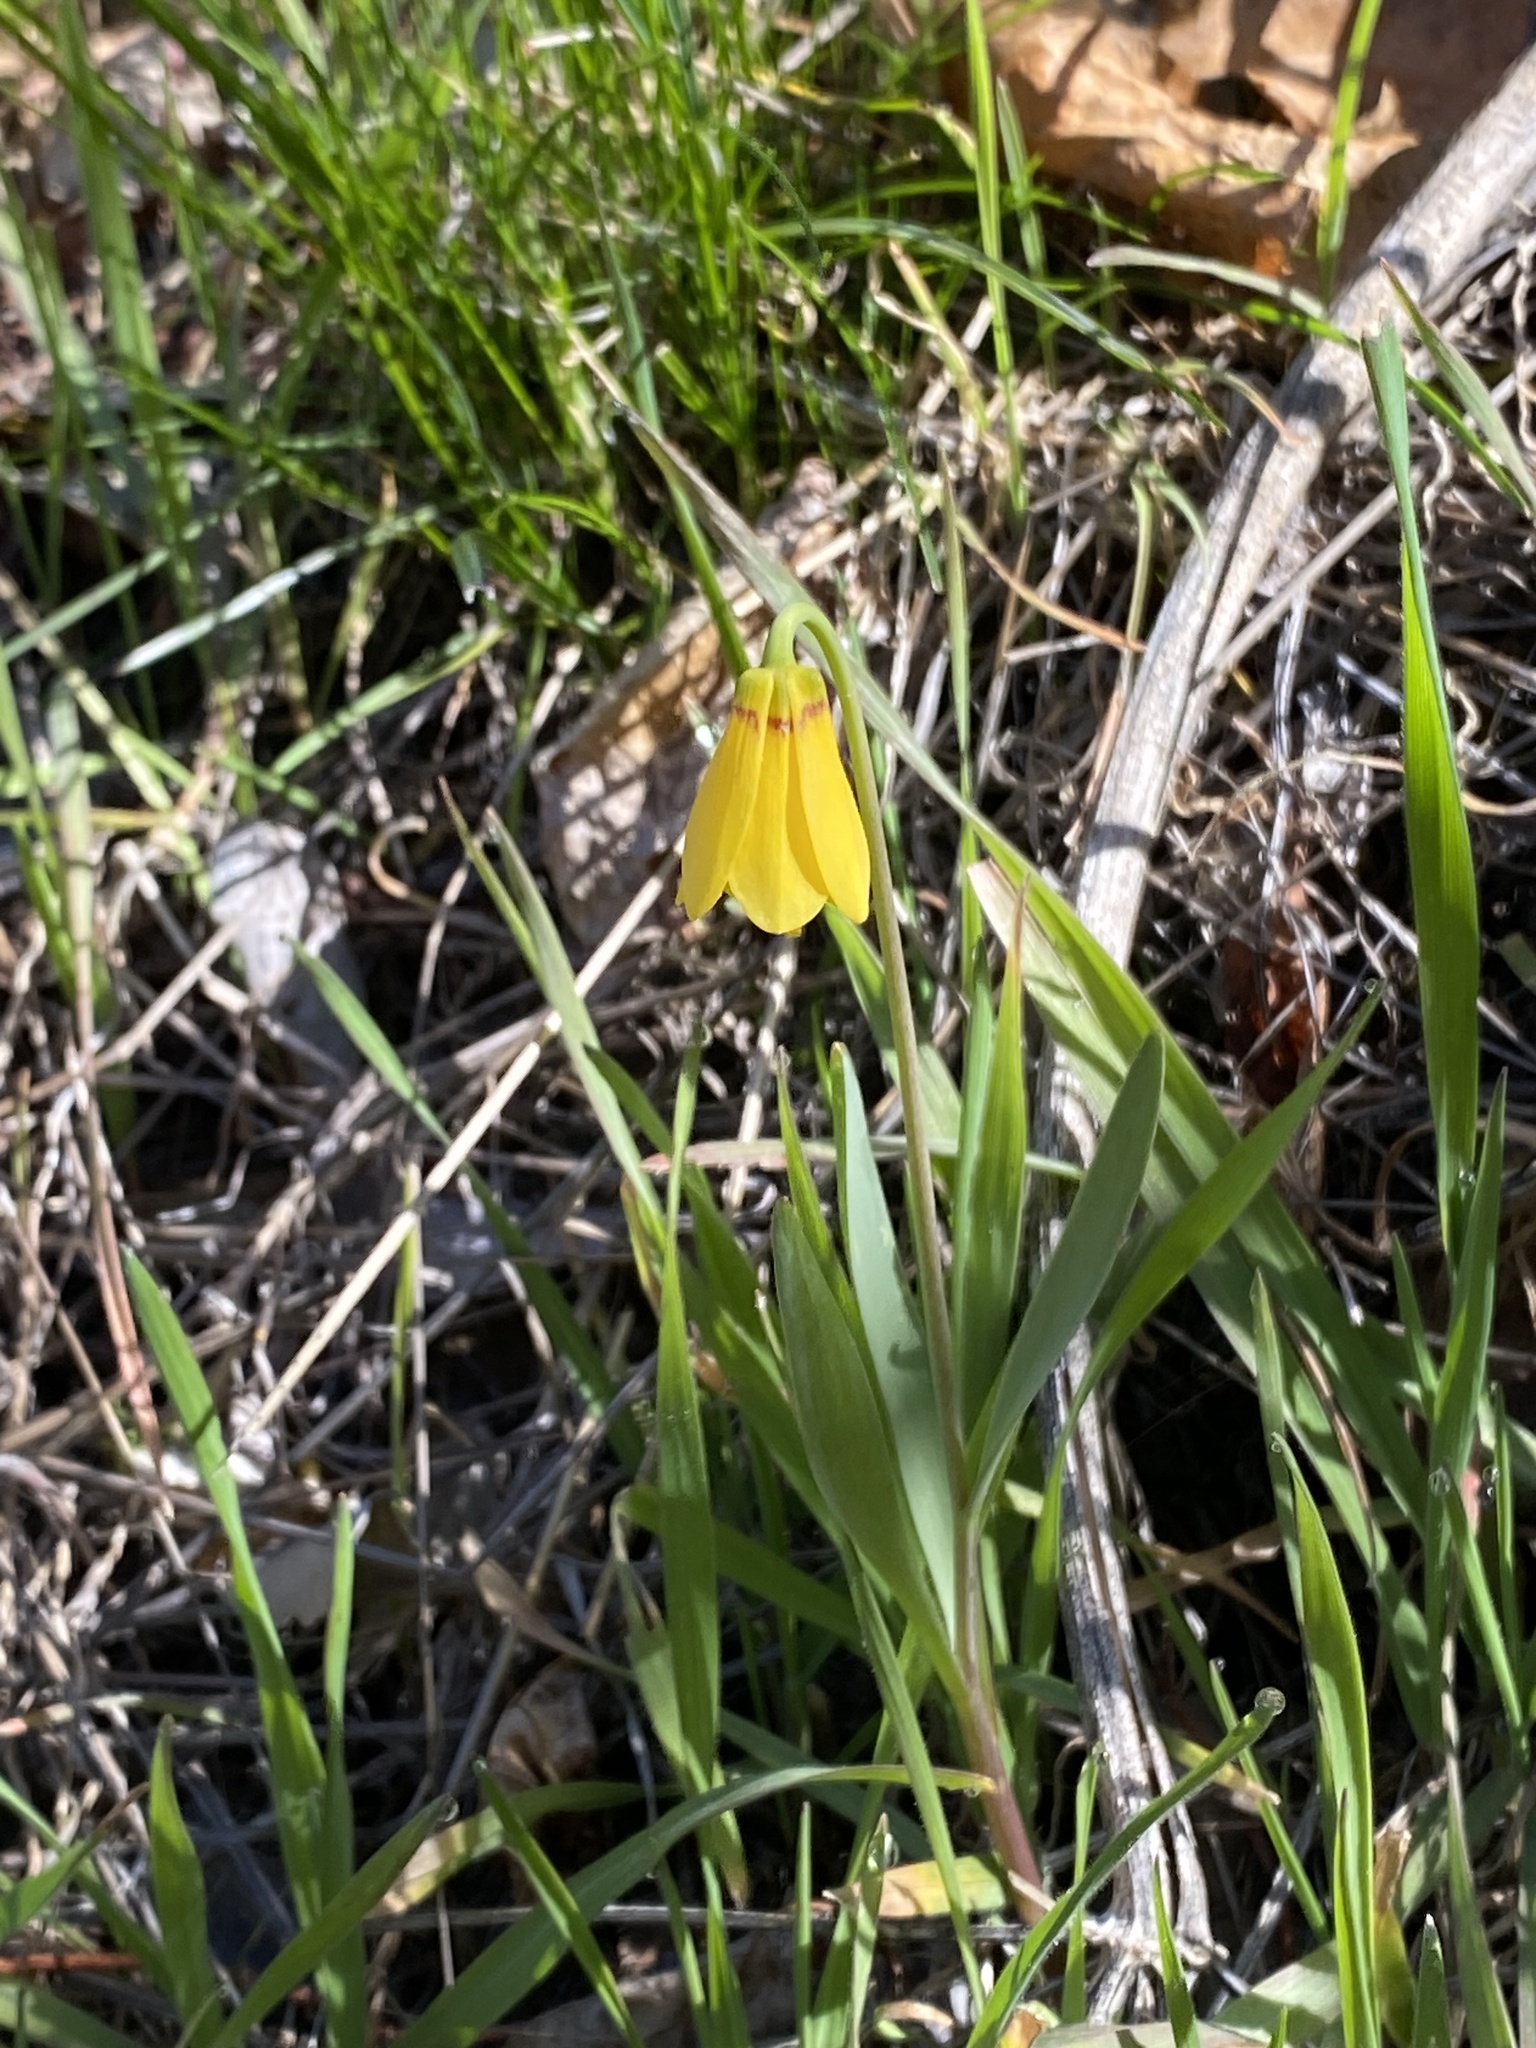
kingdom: Plantae
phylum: Tracheophyta
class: Liliopsida
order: Liliales
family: Liliaceae
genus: Fritillaria
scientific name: Fritillaria pudica
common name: Yellow fritillary
